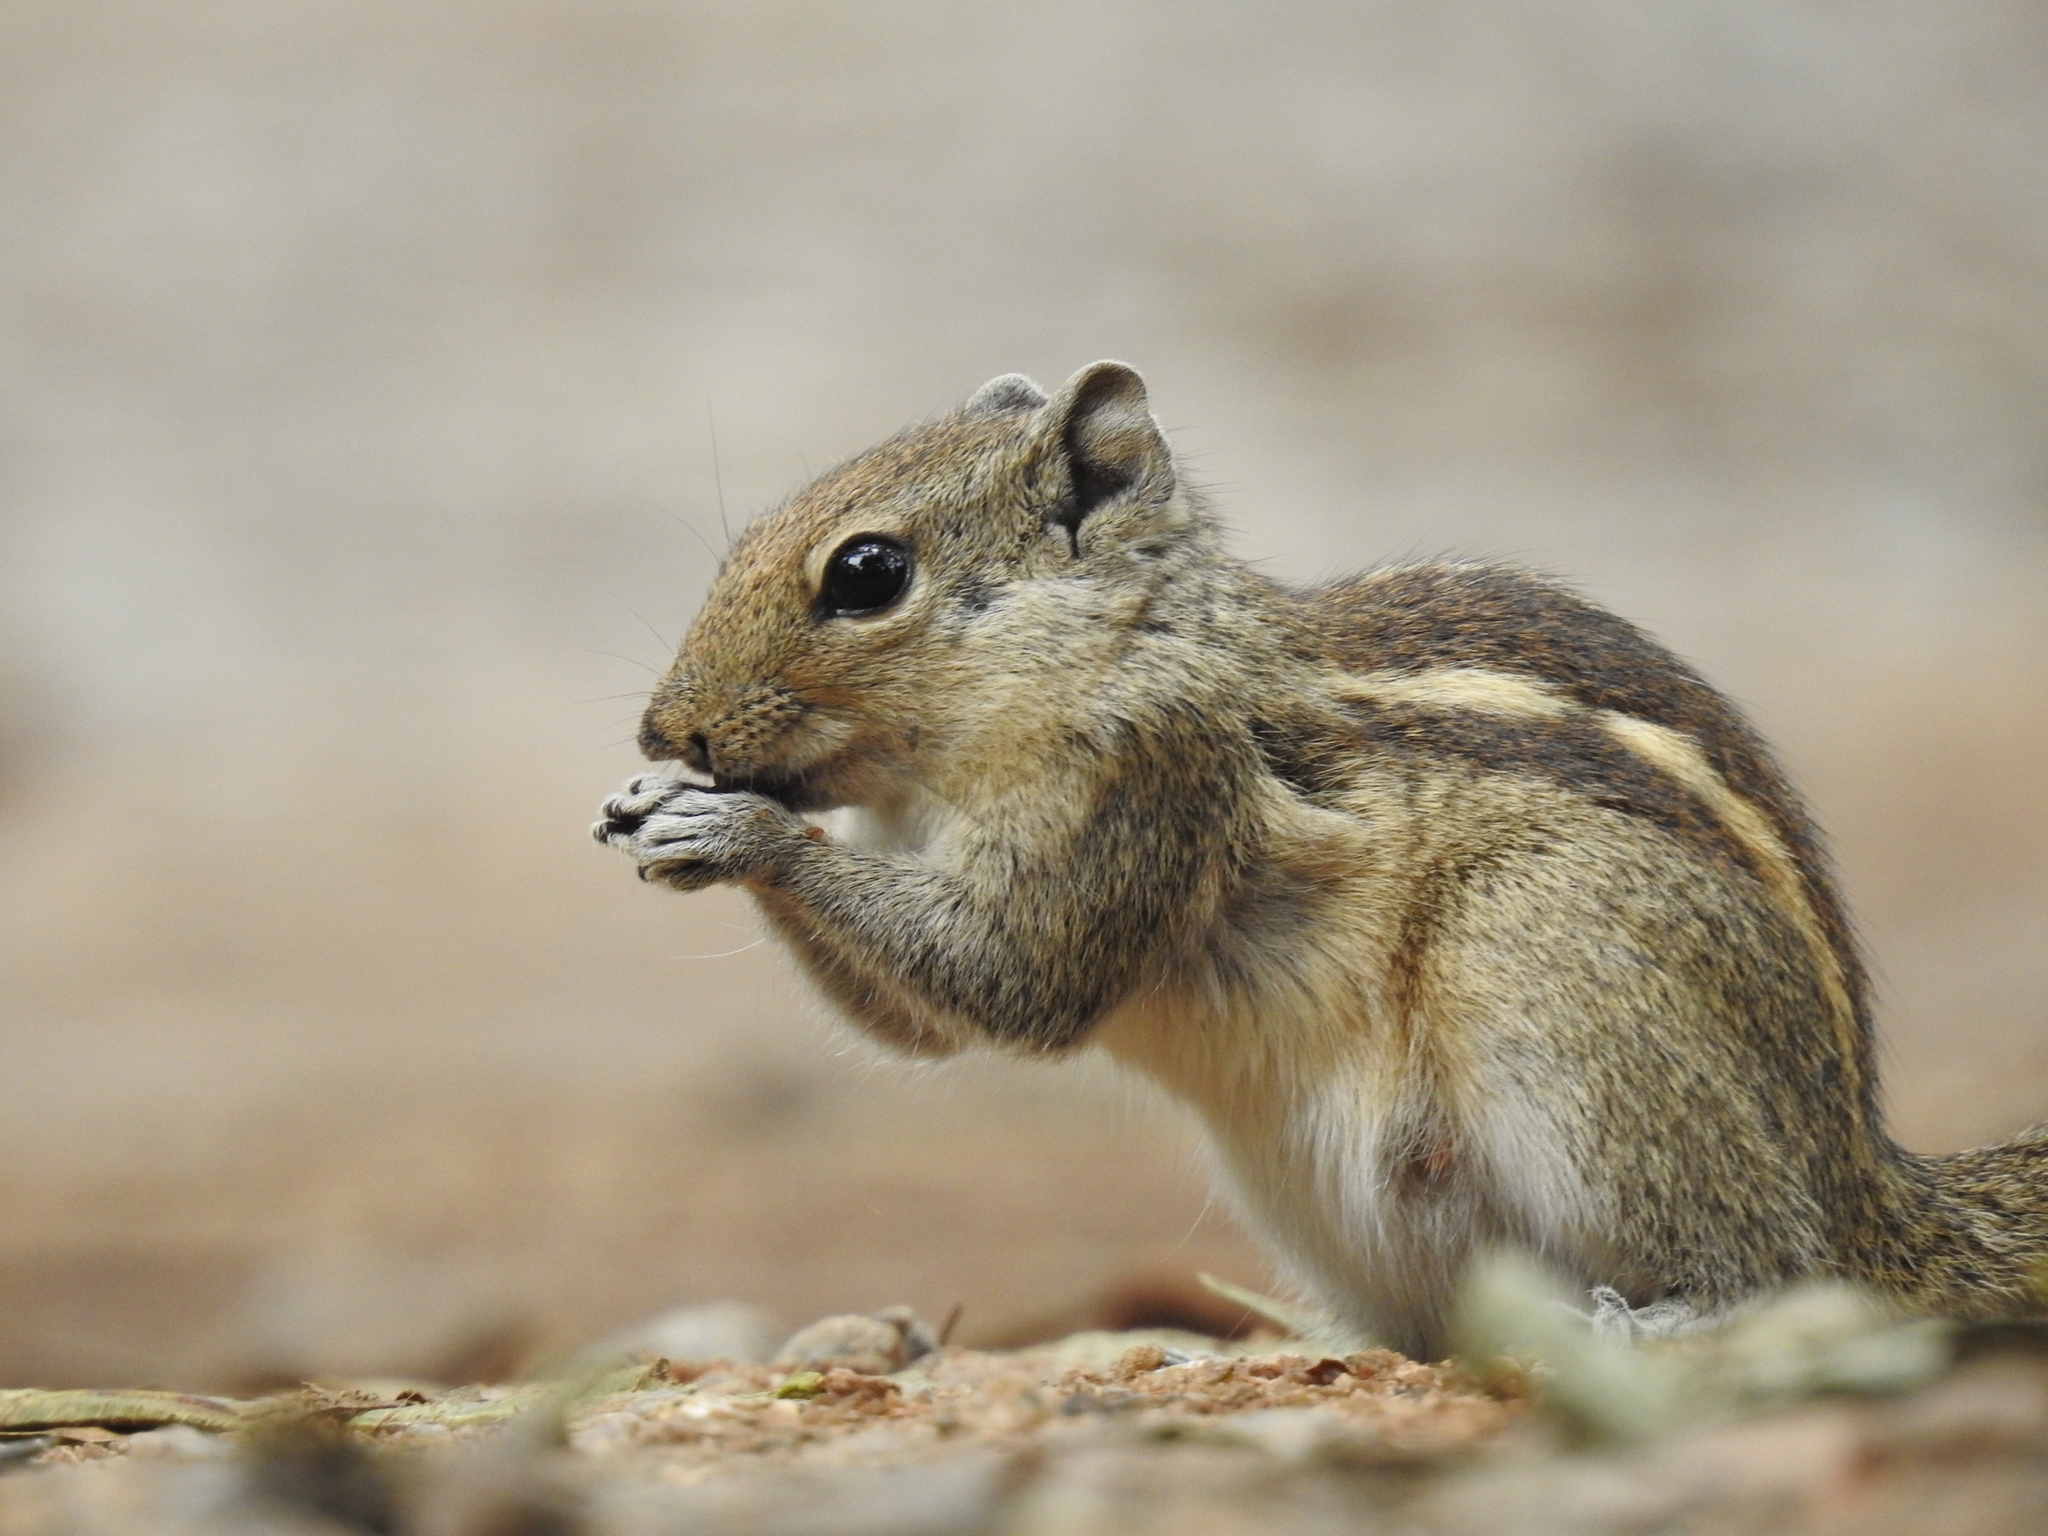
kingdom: Animalia
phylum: Chordata
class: Mammalia
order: Rodentia
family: Sciuridae
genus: Funambulus
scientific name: Funambulus palmarum
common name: Indian palm squirrel
